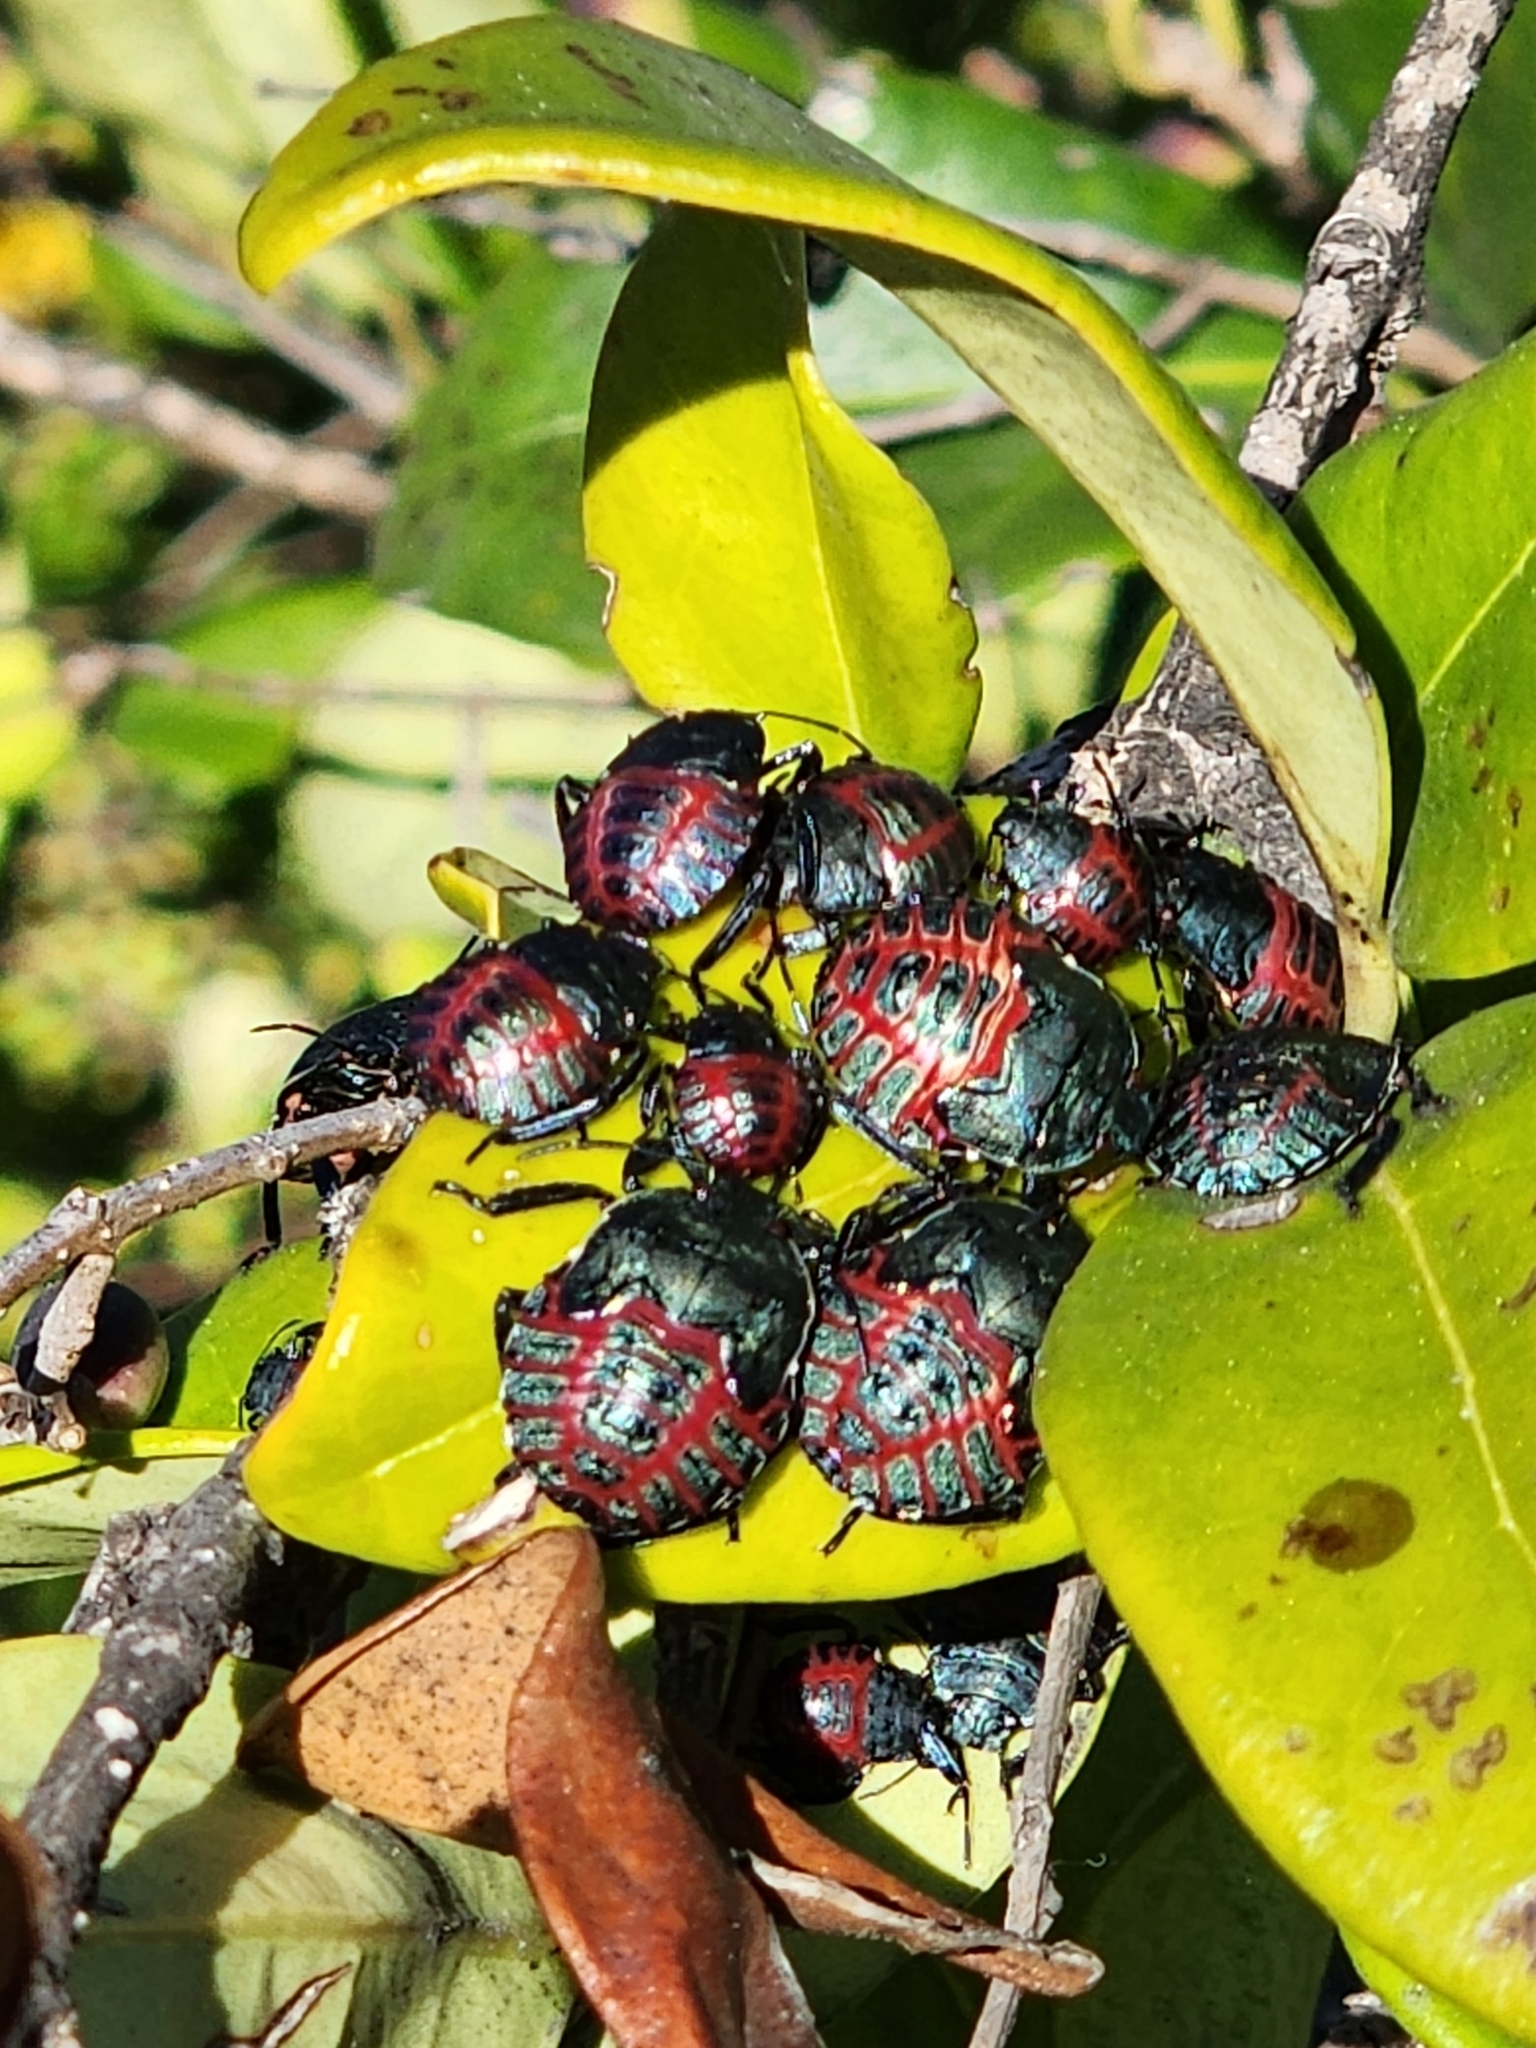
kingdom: Animalia
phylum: Arthropoda
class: Insecta
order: Hemiptera
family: Pentatomidae
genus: Pellaea
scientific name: Pellaea stictica
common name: Stink bug
